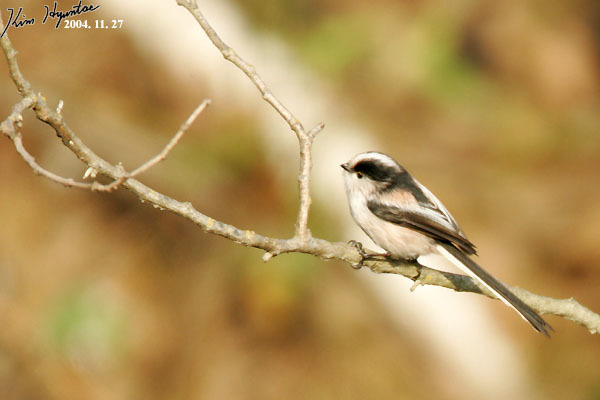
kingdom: Animalia
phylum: Chordata
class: Aves
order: Passeriformes
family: Aegithalidae
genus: Aegithalos
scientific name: Aegithalos caudatus
